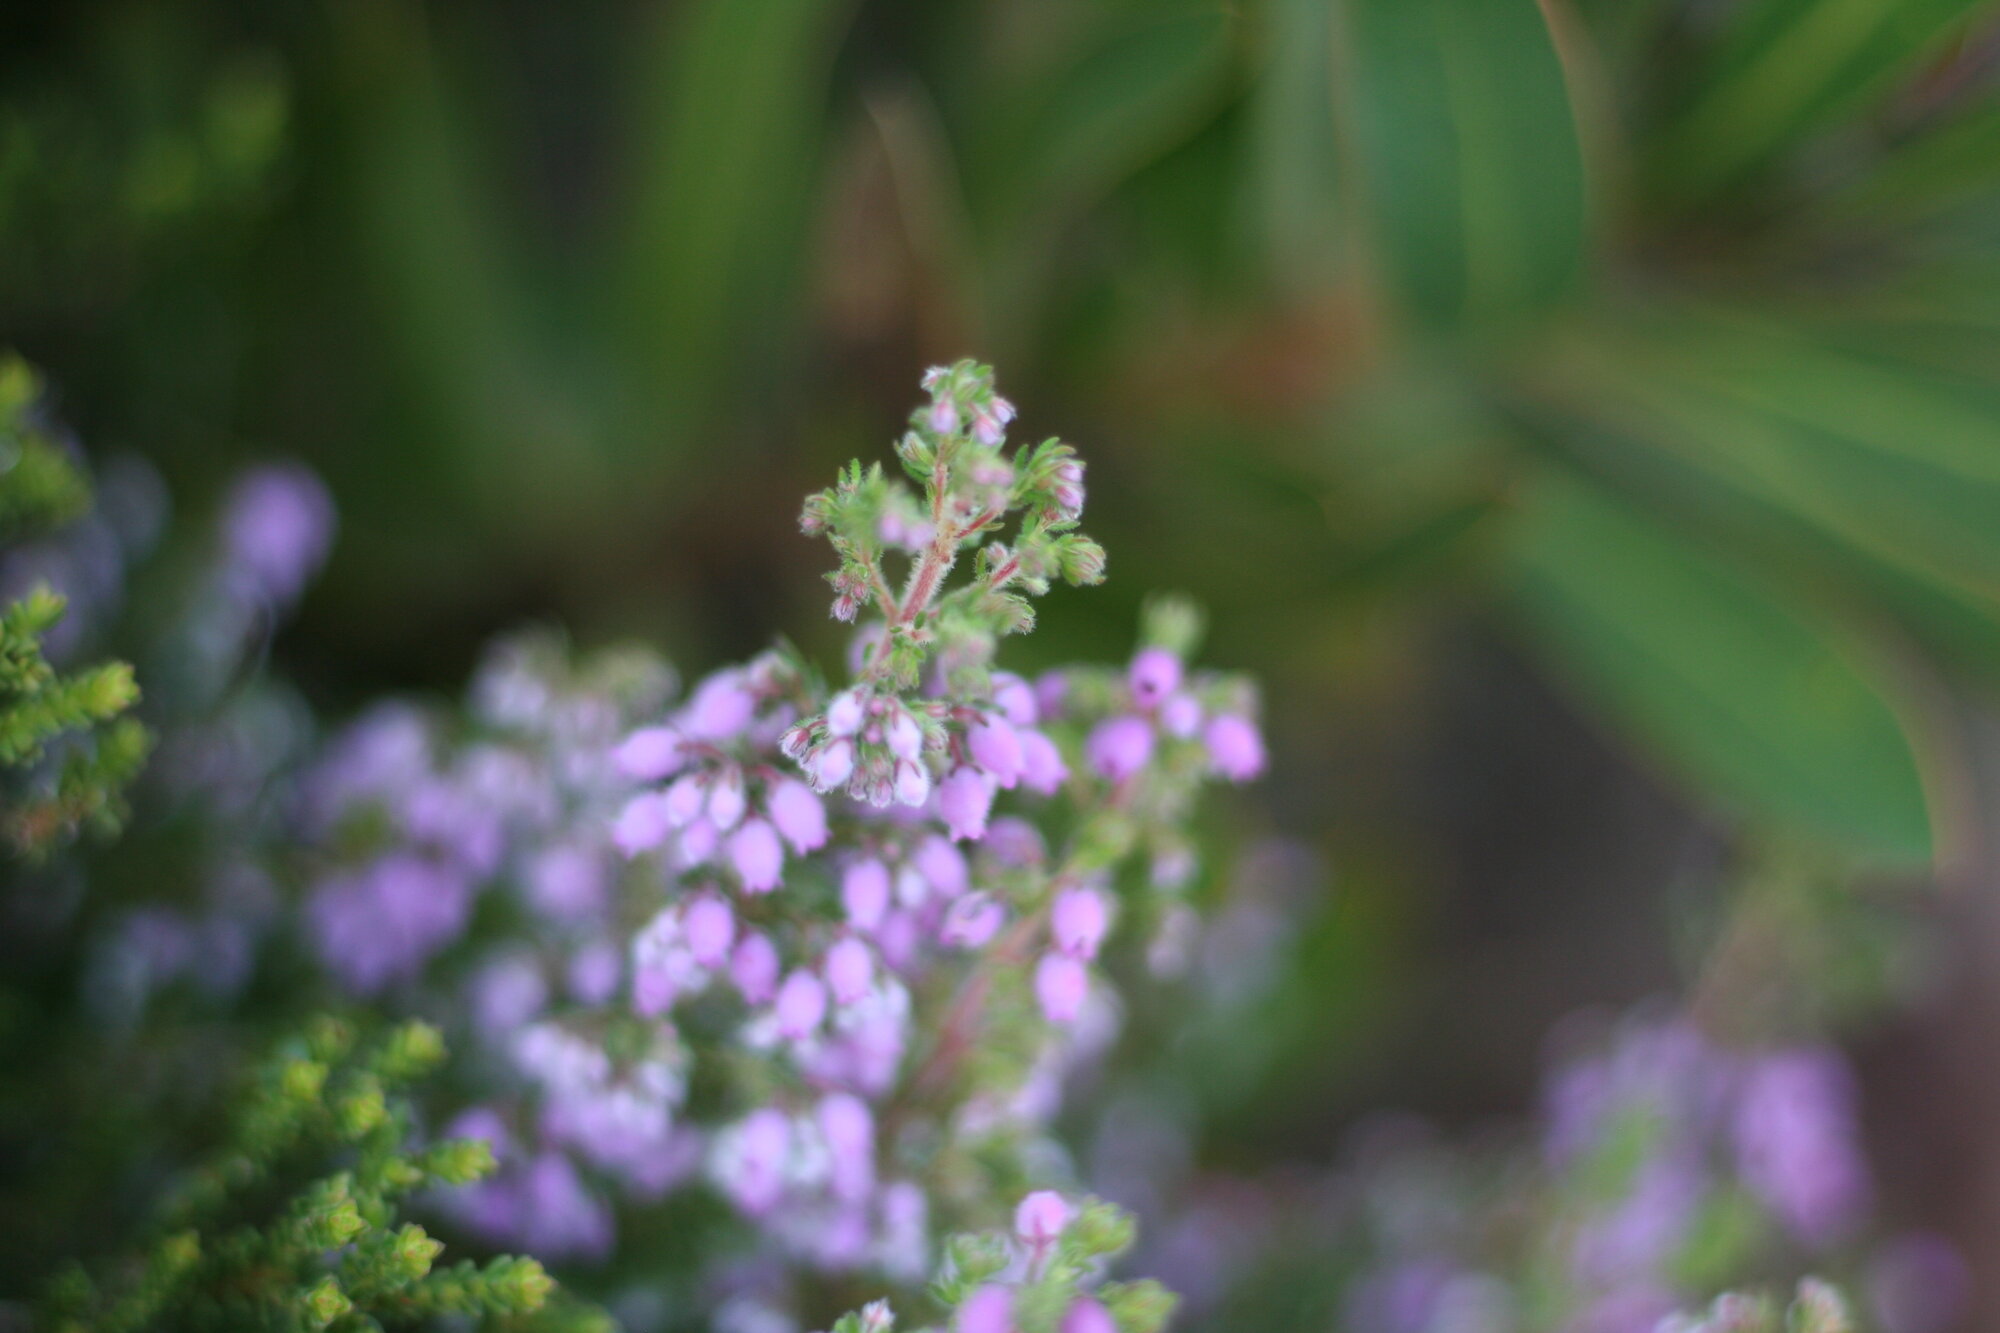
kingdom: Plantae
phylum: Tracheophyta
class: Magnoliopsida
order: Ericales
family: Ericaceae
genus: Erica
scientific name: Erica hirtiflora
